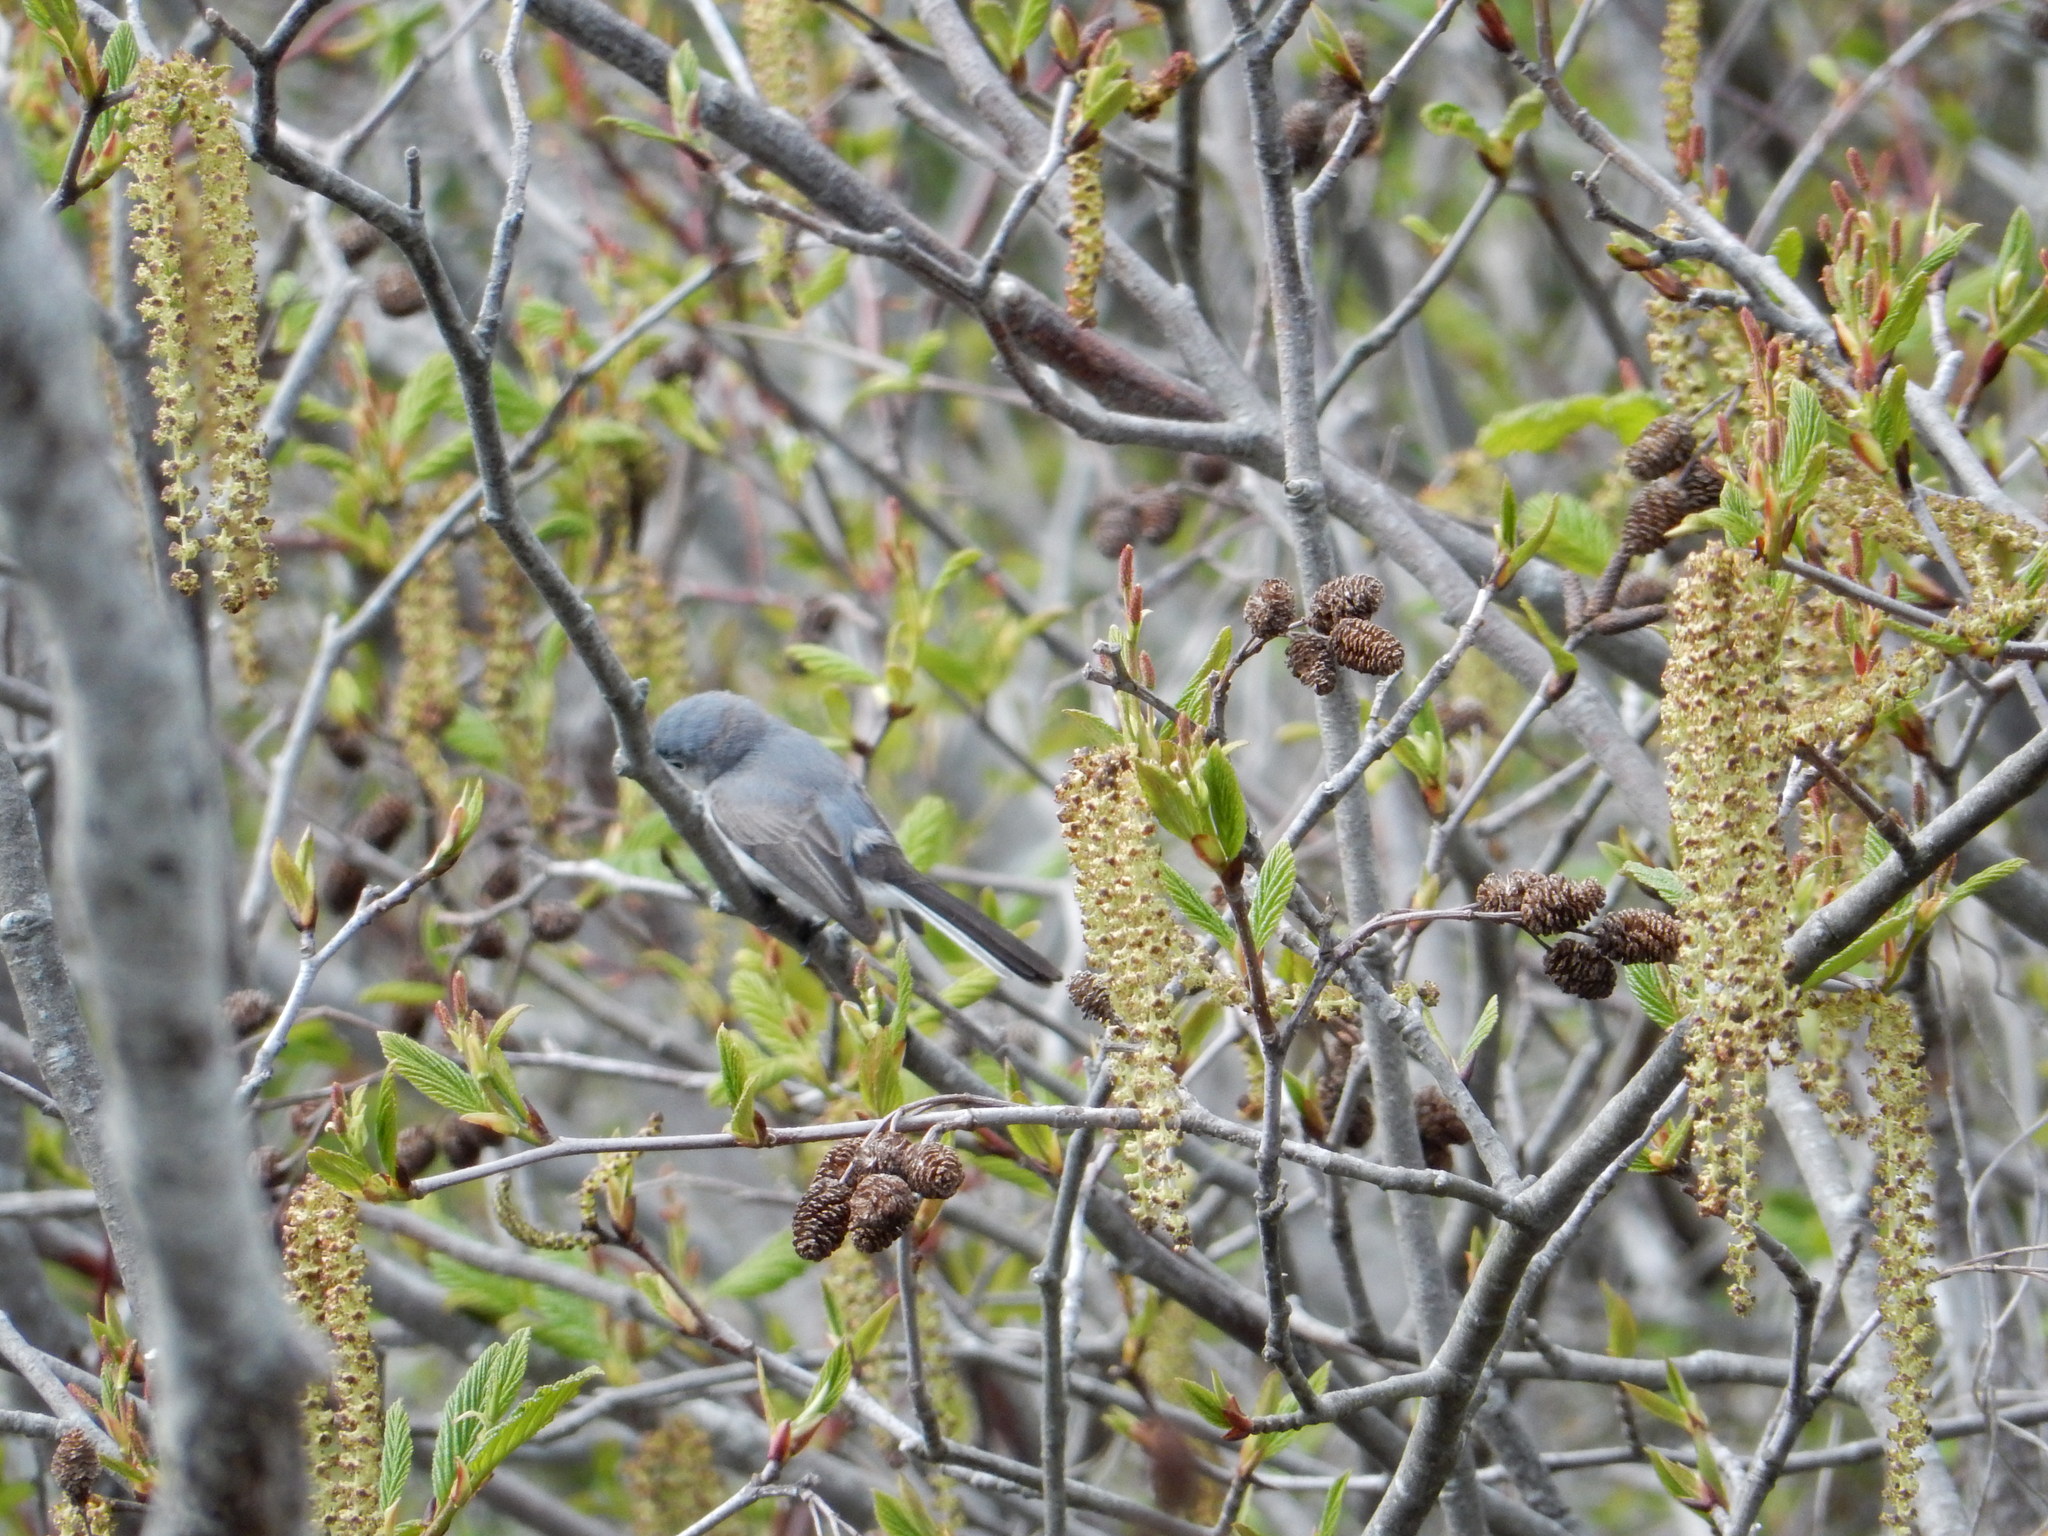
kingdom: Animalia
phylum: Chordata
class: Aves
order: Passeriformes
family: Polioptilidae
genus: Polioptila
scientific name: Polioptila caerulea
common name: Blue-gray gnatcatcher
